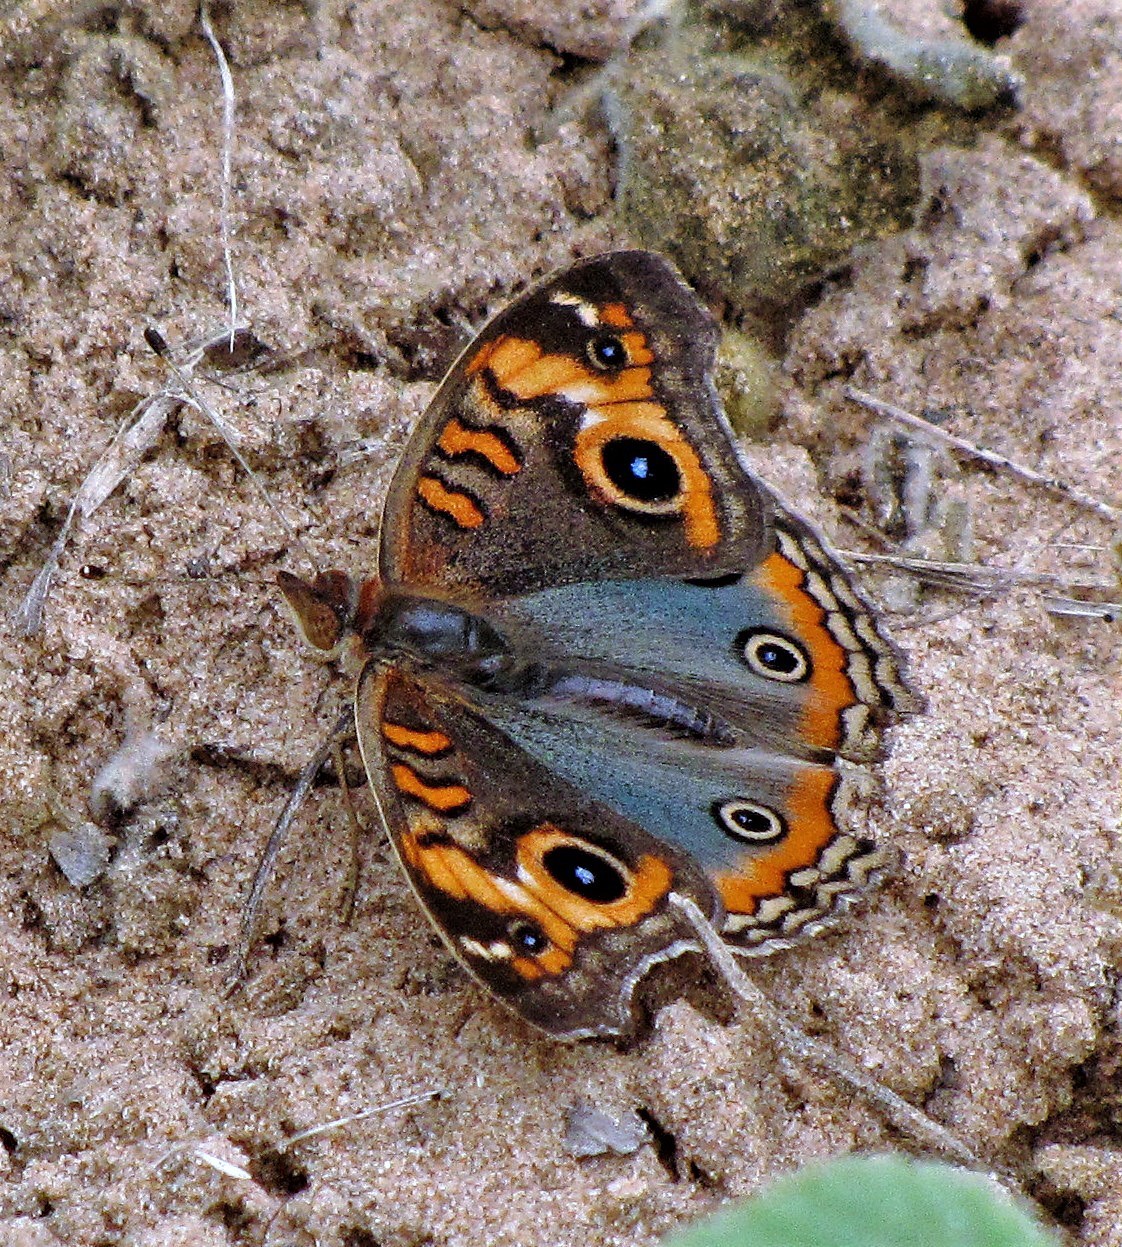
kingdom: Animalia
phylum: Arthropoda
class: Insecta
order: Lepidoptera
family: Nymphalidae
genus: Junonia
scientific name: Junonia lavinia
